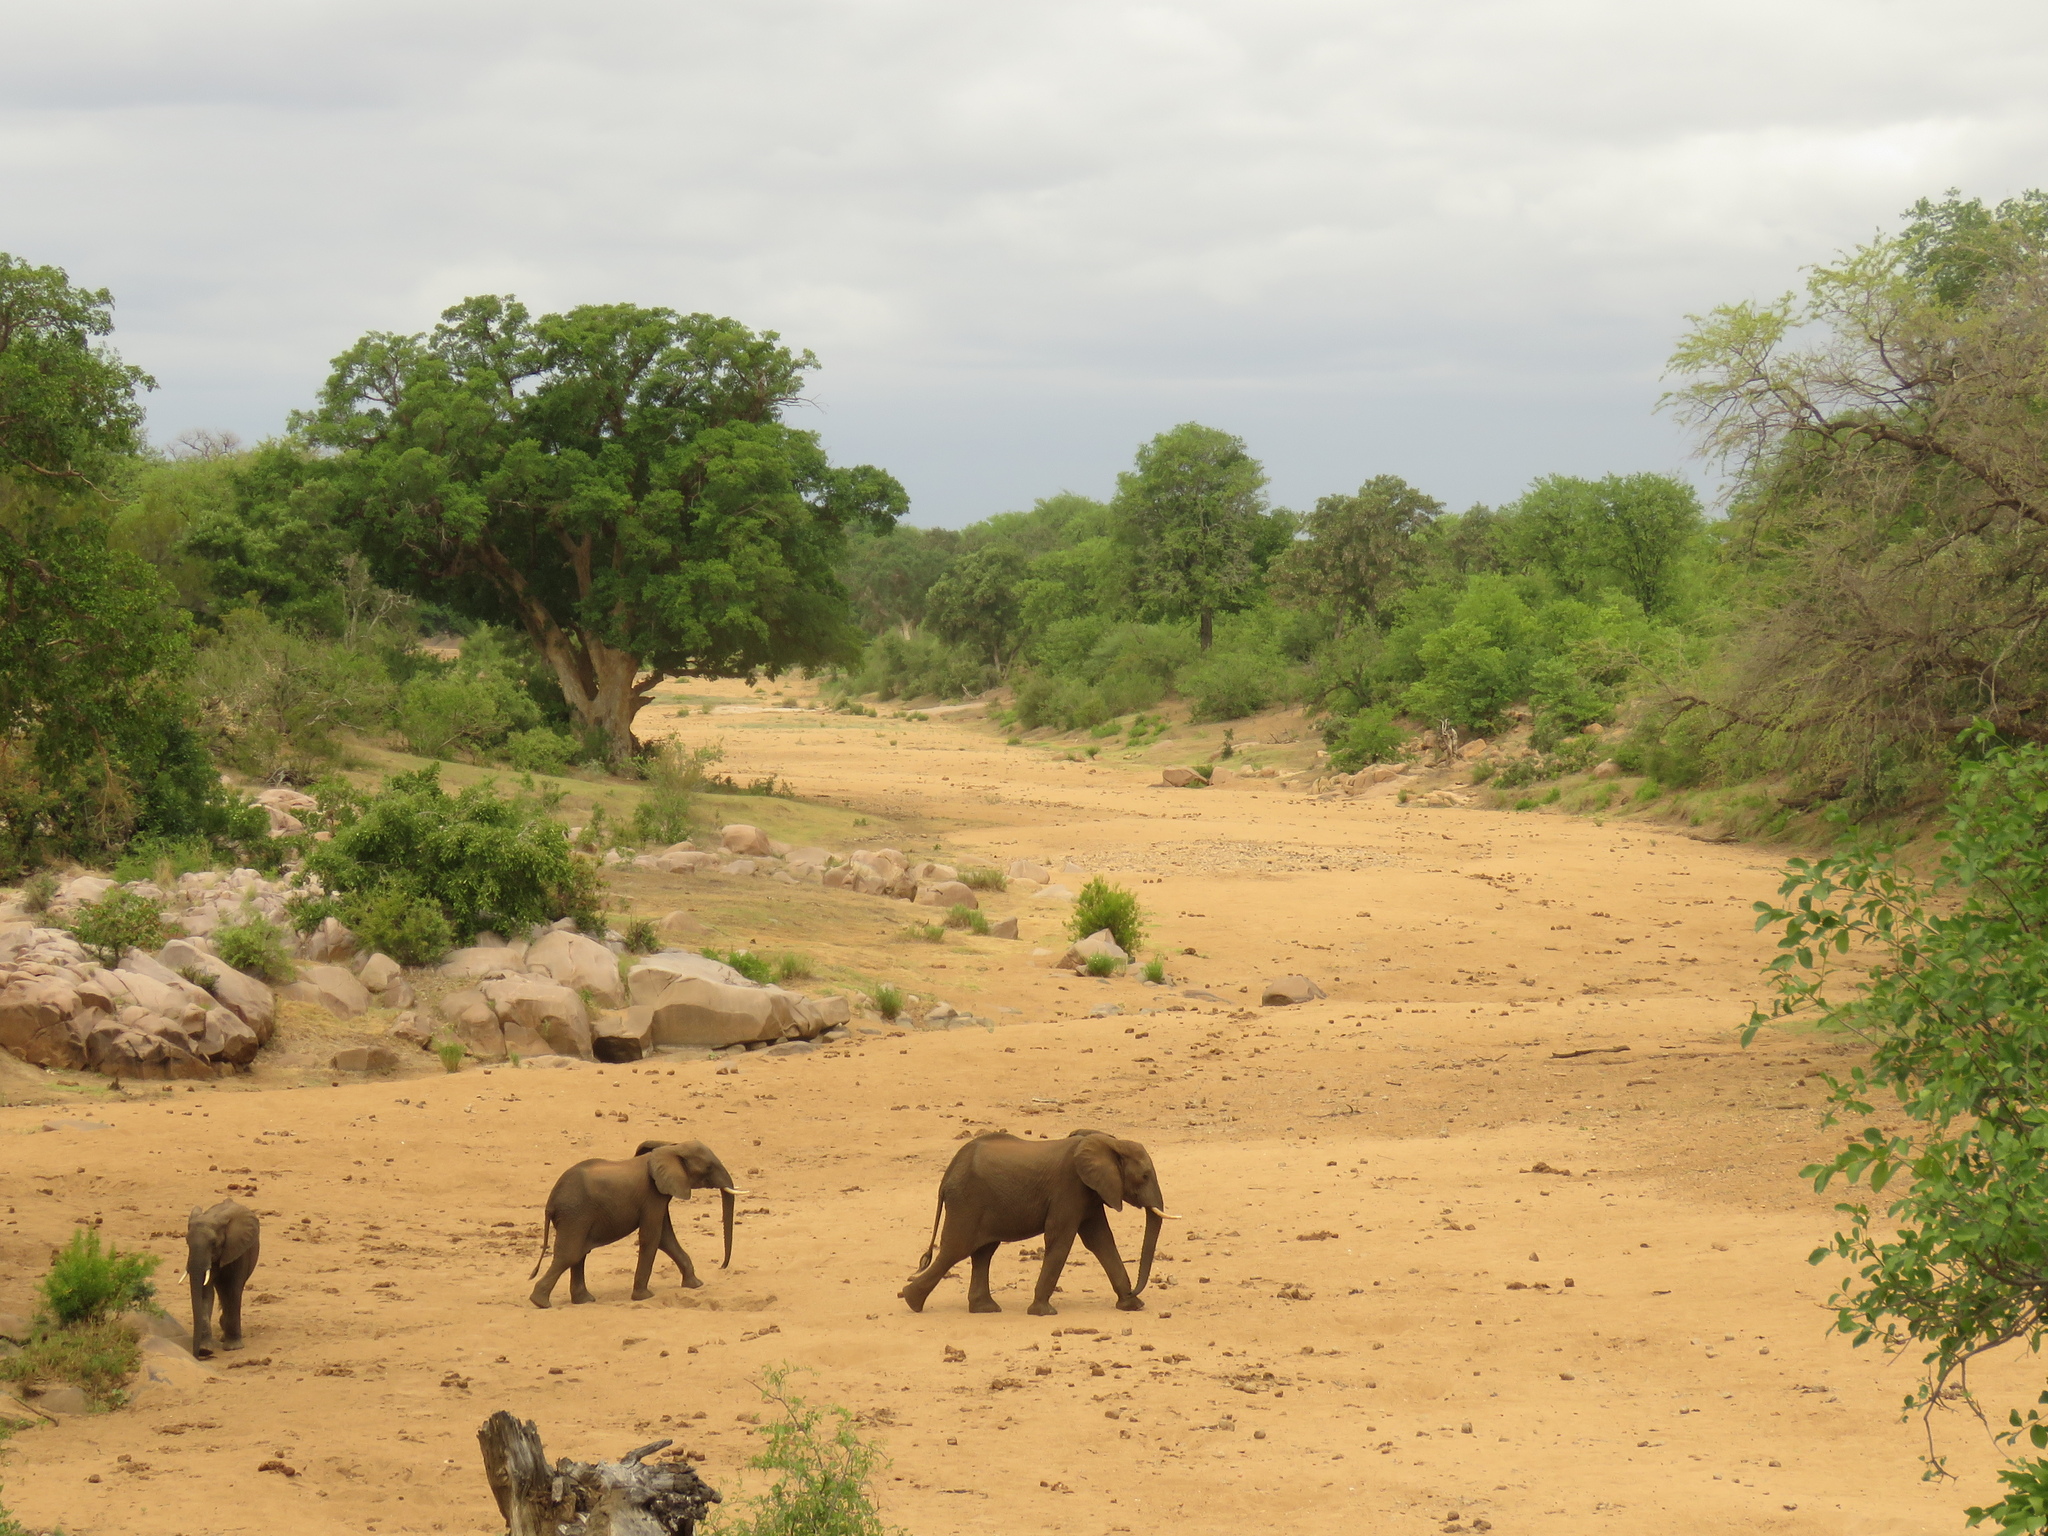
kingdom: Animalia
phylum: Chordata
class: Mammalia
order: Proboscidea
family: Elephantidae
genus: Loxodonta
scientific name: Loxodonta africana
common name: African elephant
